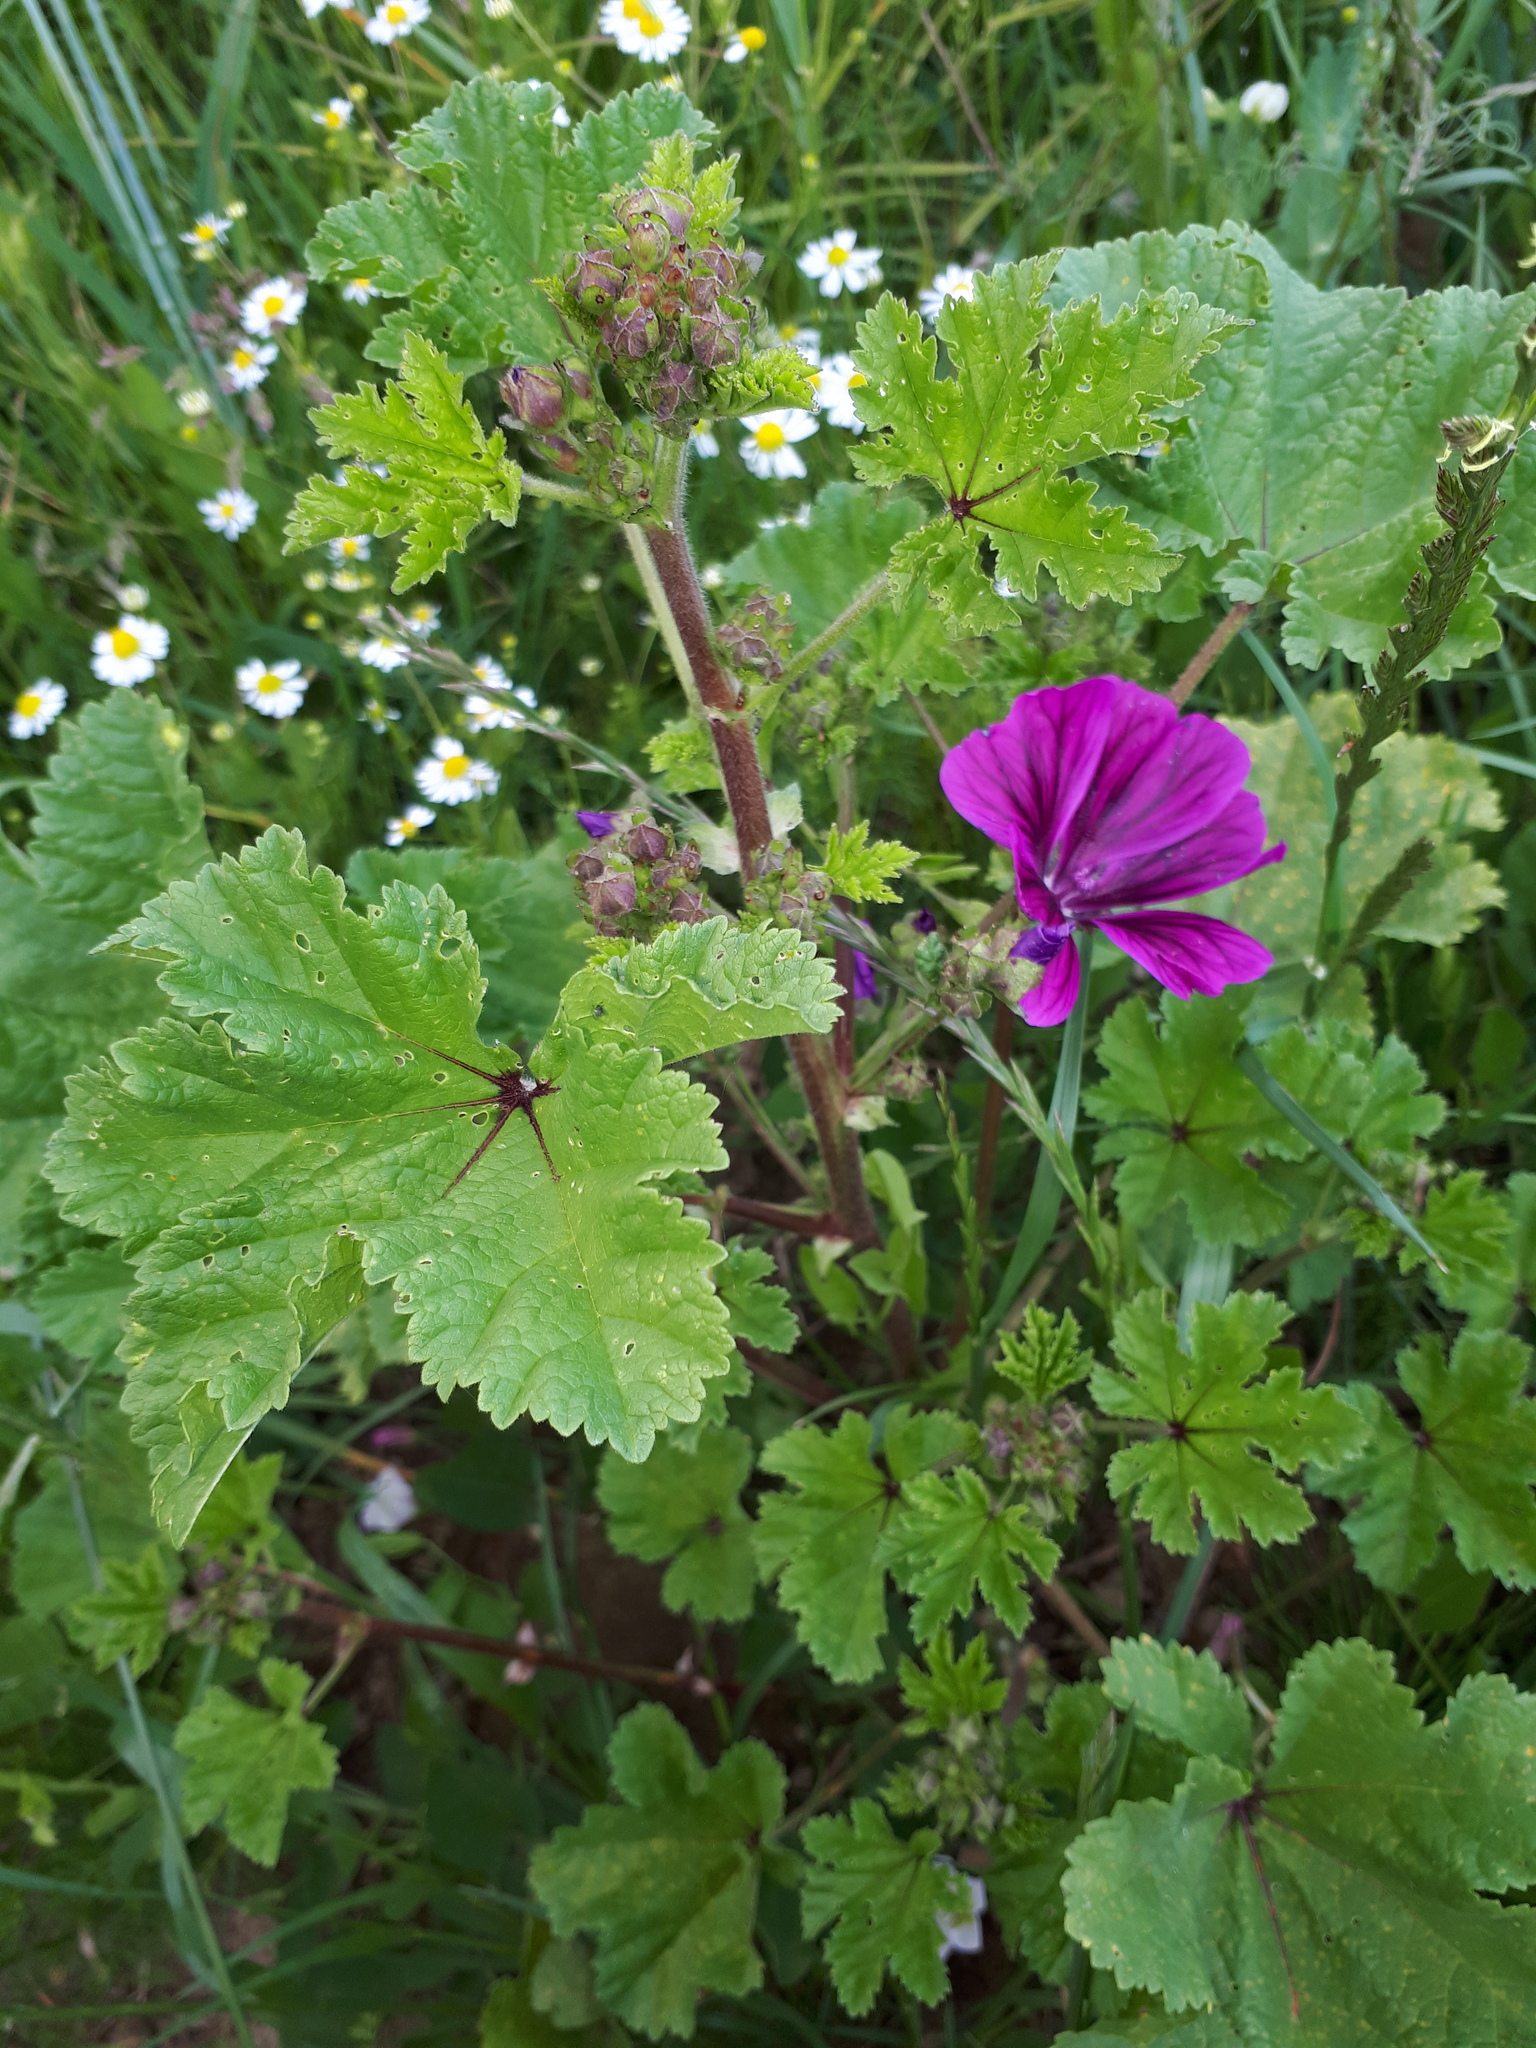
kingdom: Plantae
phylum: Tracheophyta
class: Magnoliopsida
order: Malvales
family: Malvaceae
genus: Malva
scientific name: Malva sylvestris
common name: Common mallow
